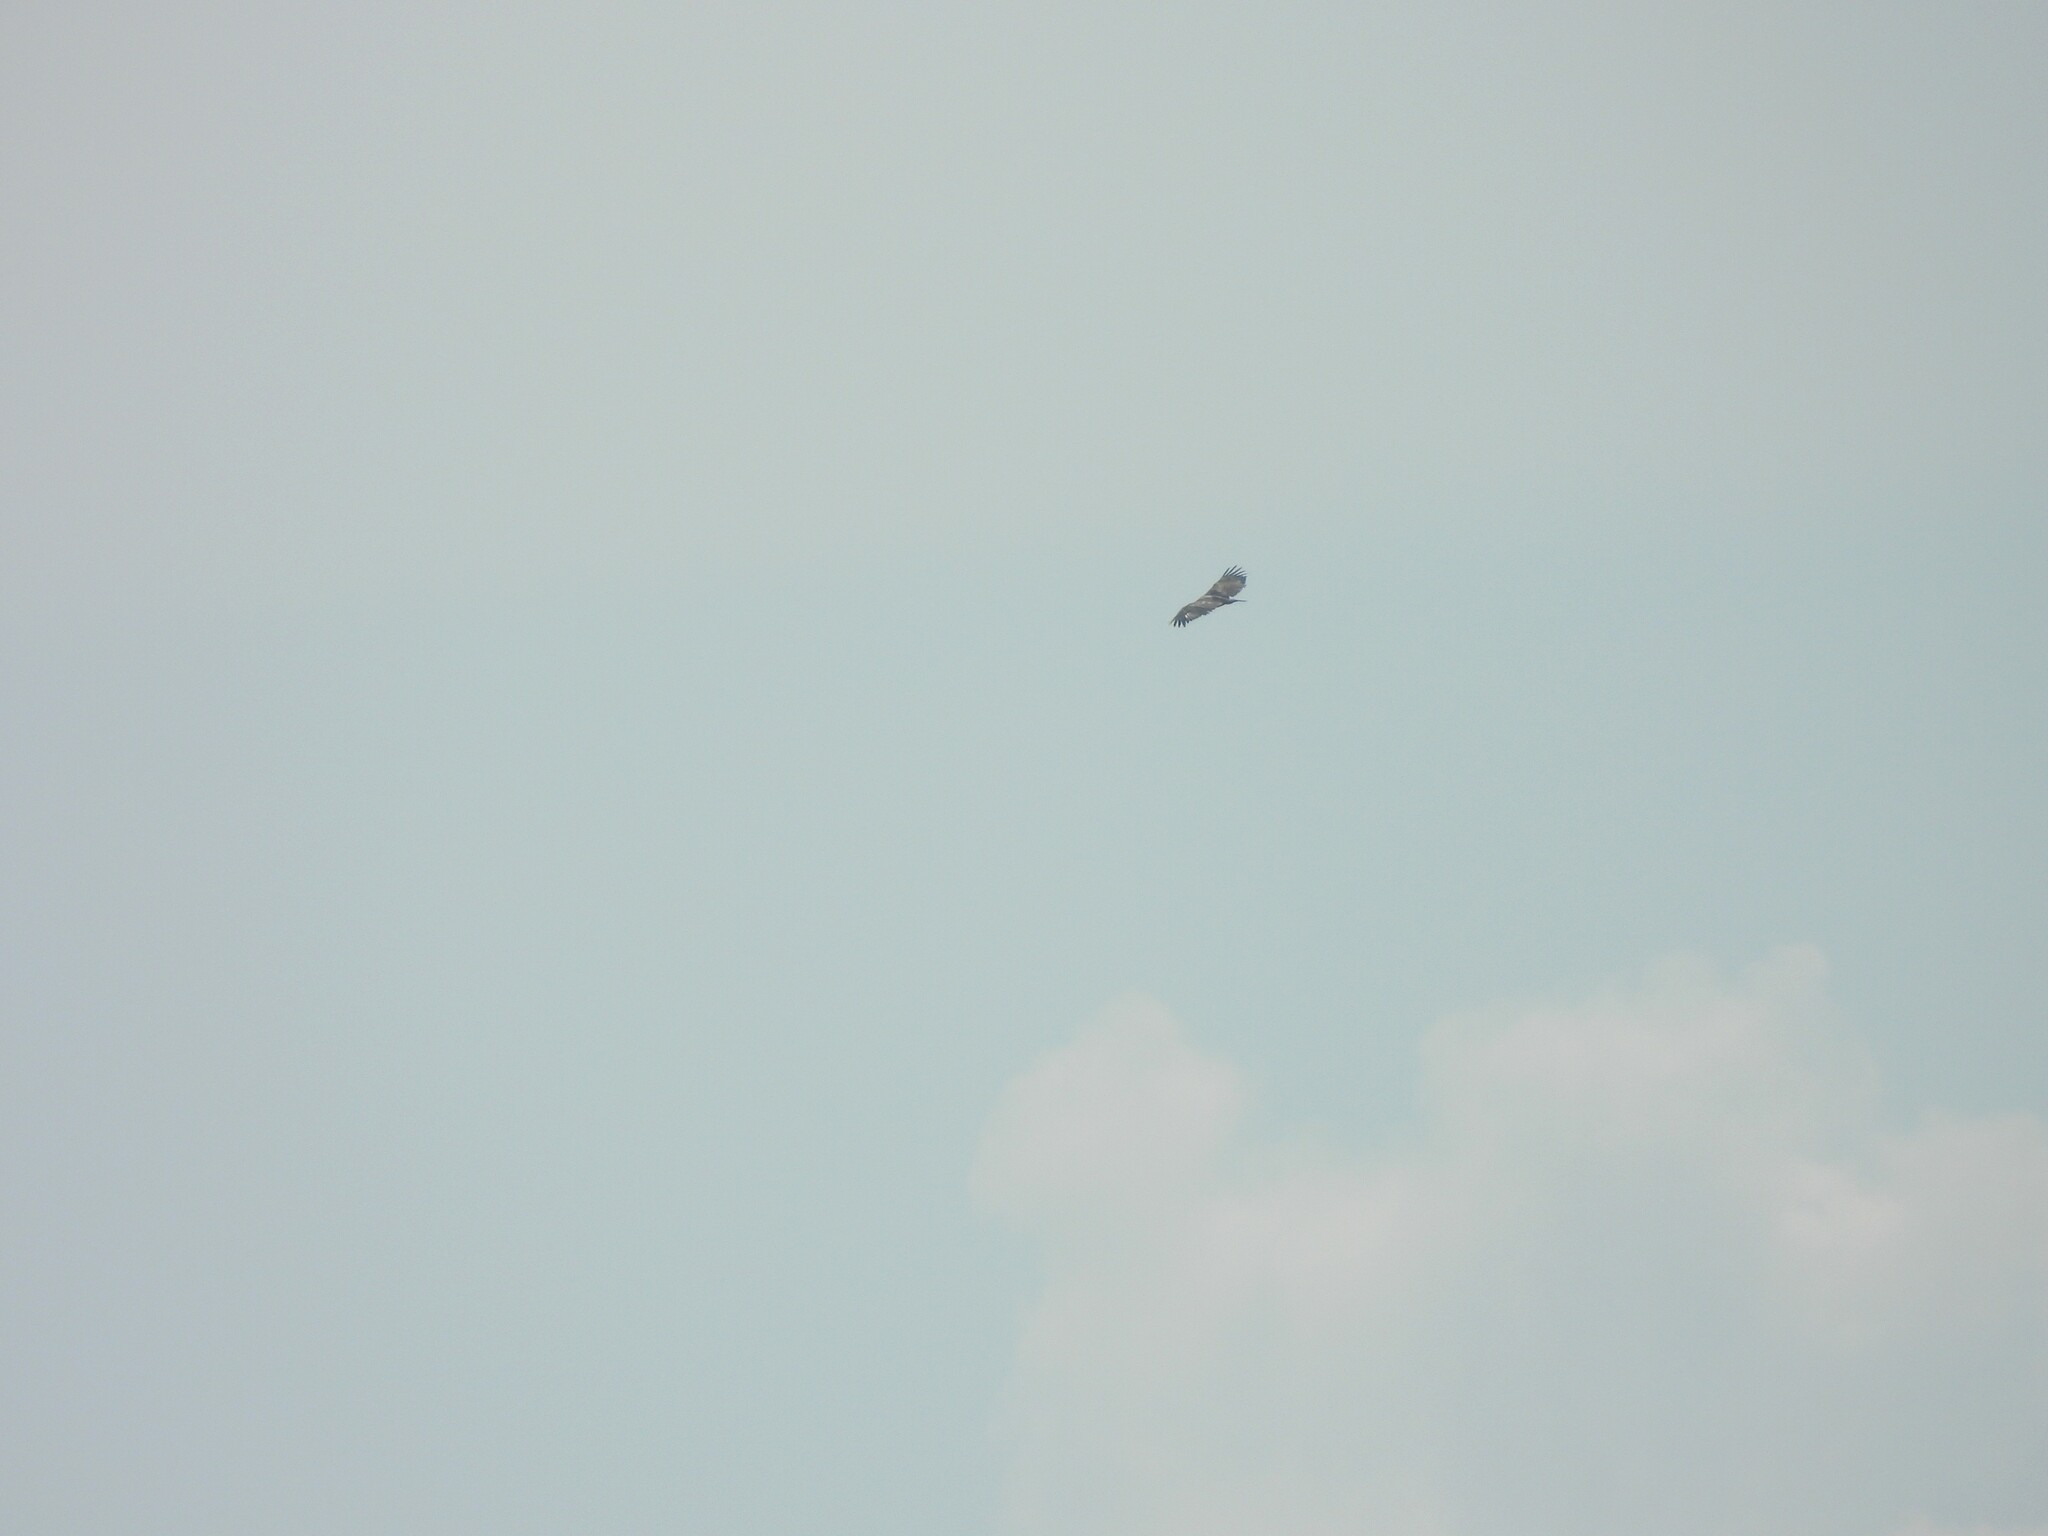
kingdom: Animalia
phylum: Chordata
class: Aves
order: Accipitriformes
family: Accipitridae
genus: Haliaeetus
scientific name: Haliaeetus leucocephalus
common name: Bald eagle
